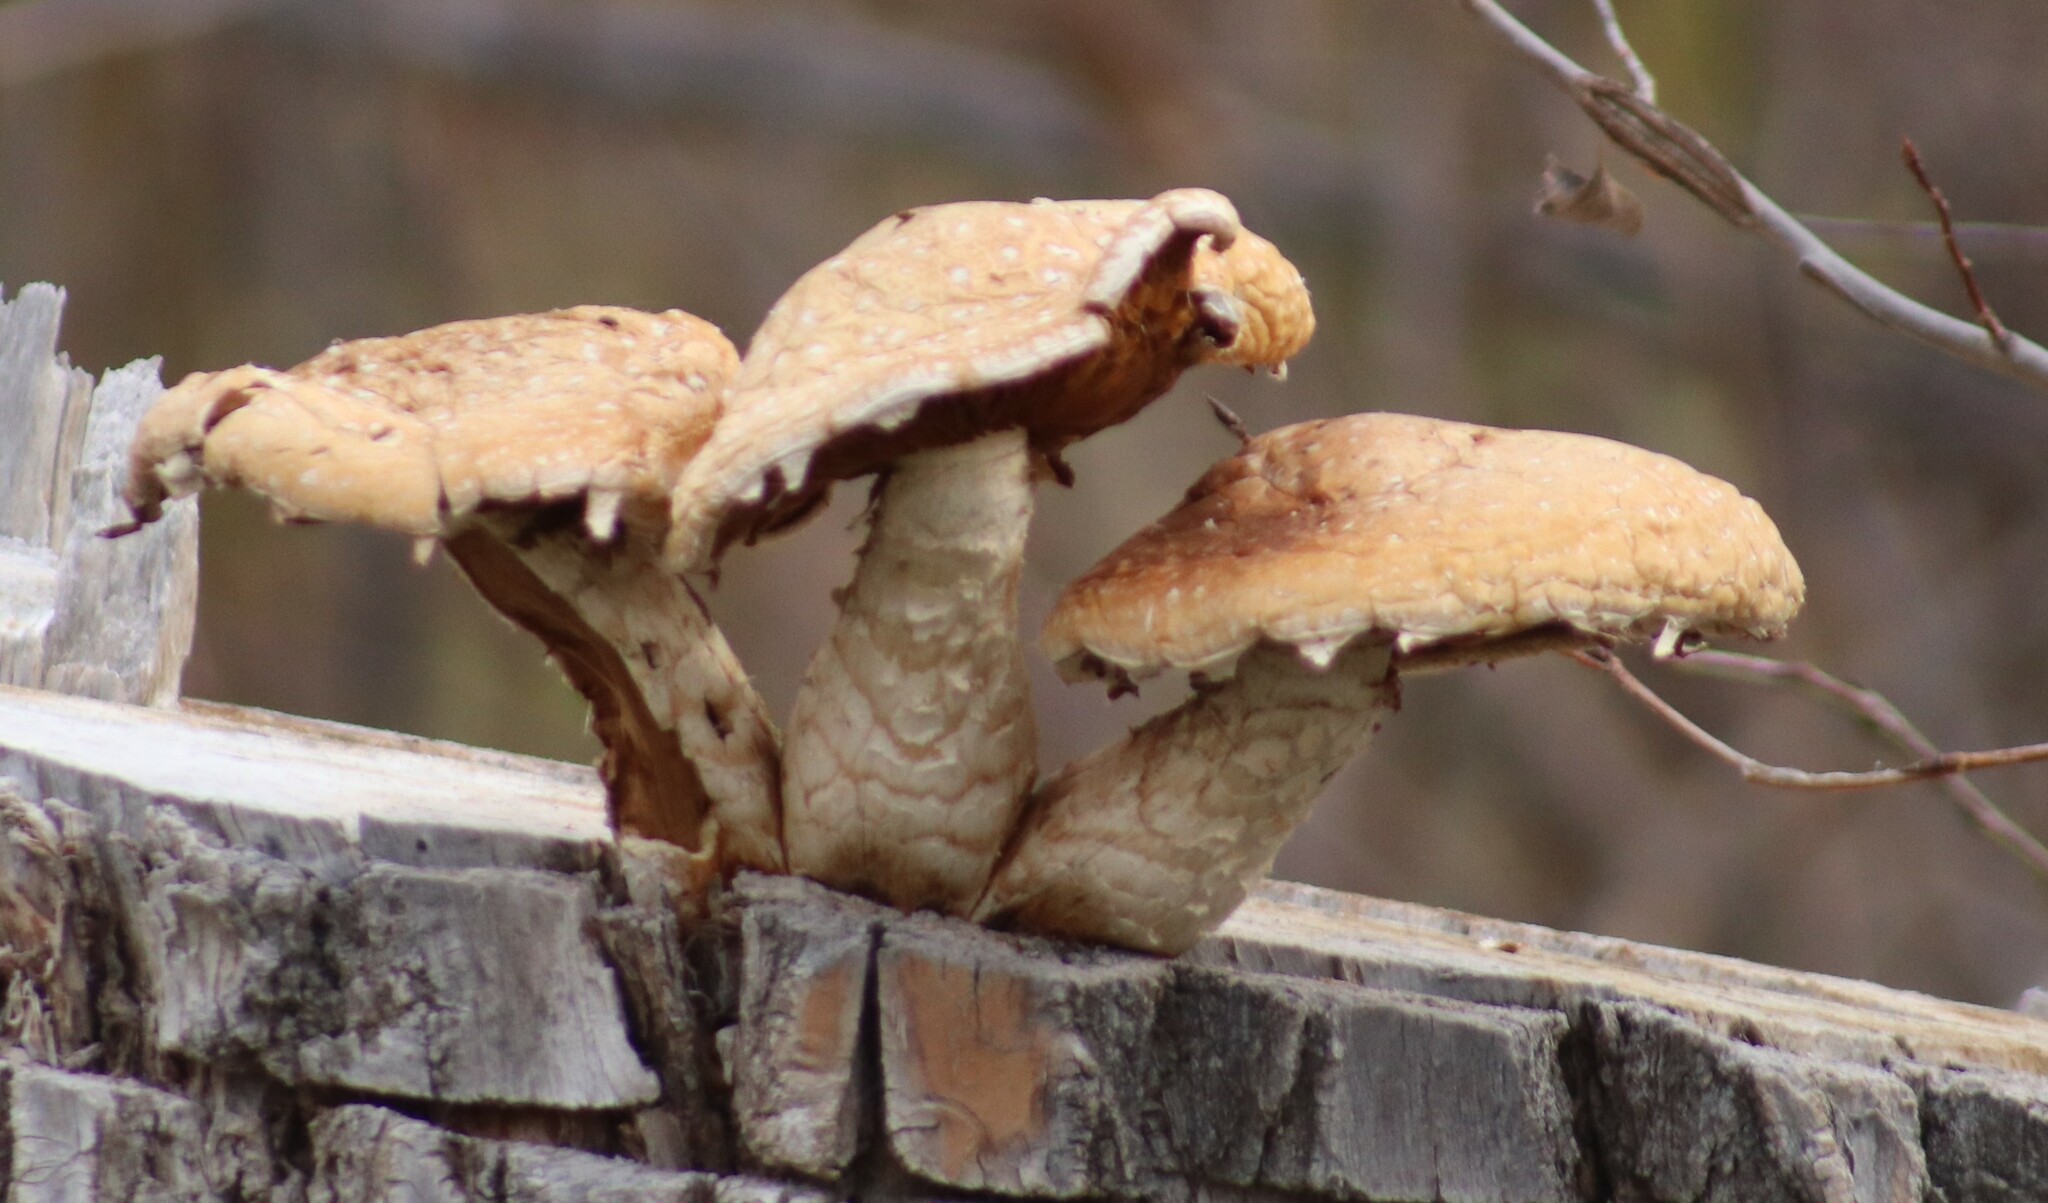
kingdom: Fungi
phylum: Basidiomycota
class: Agaricomycetes
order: Agaricales
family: Strophariaceae
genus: Pholiota
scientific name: Pholiota populnea
